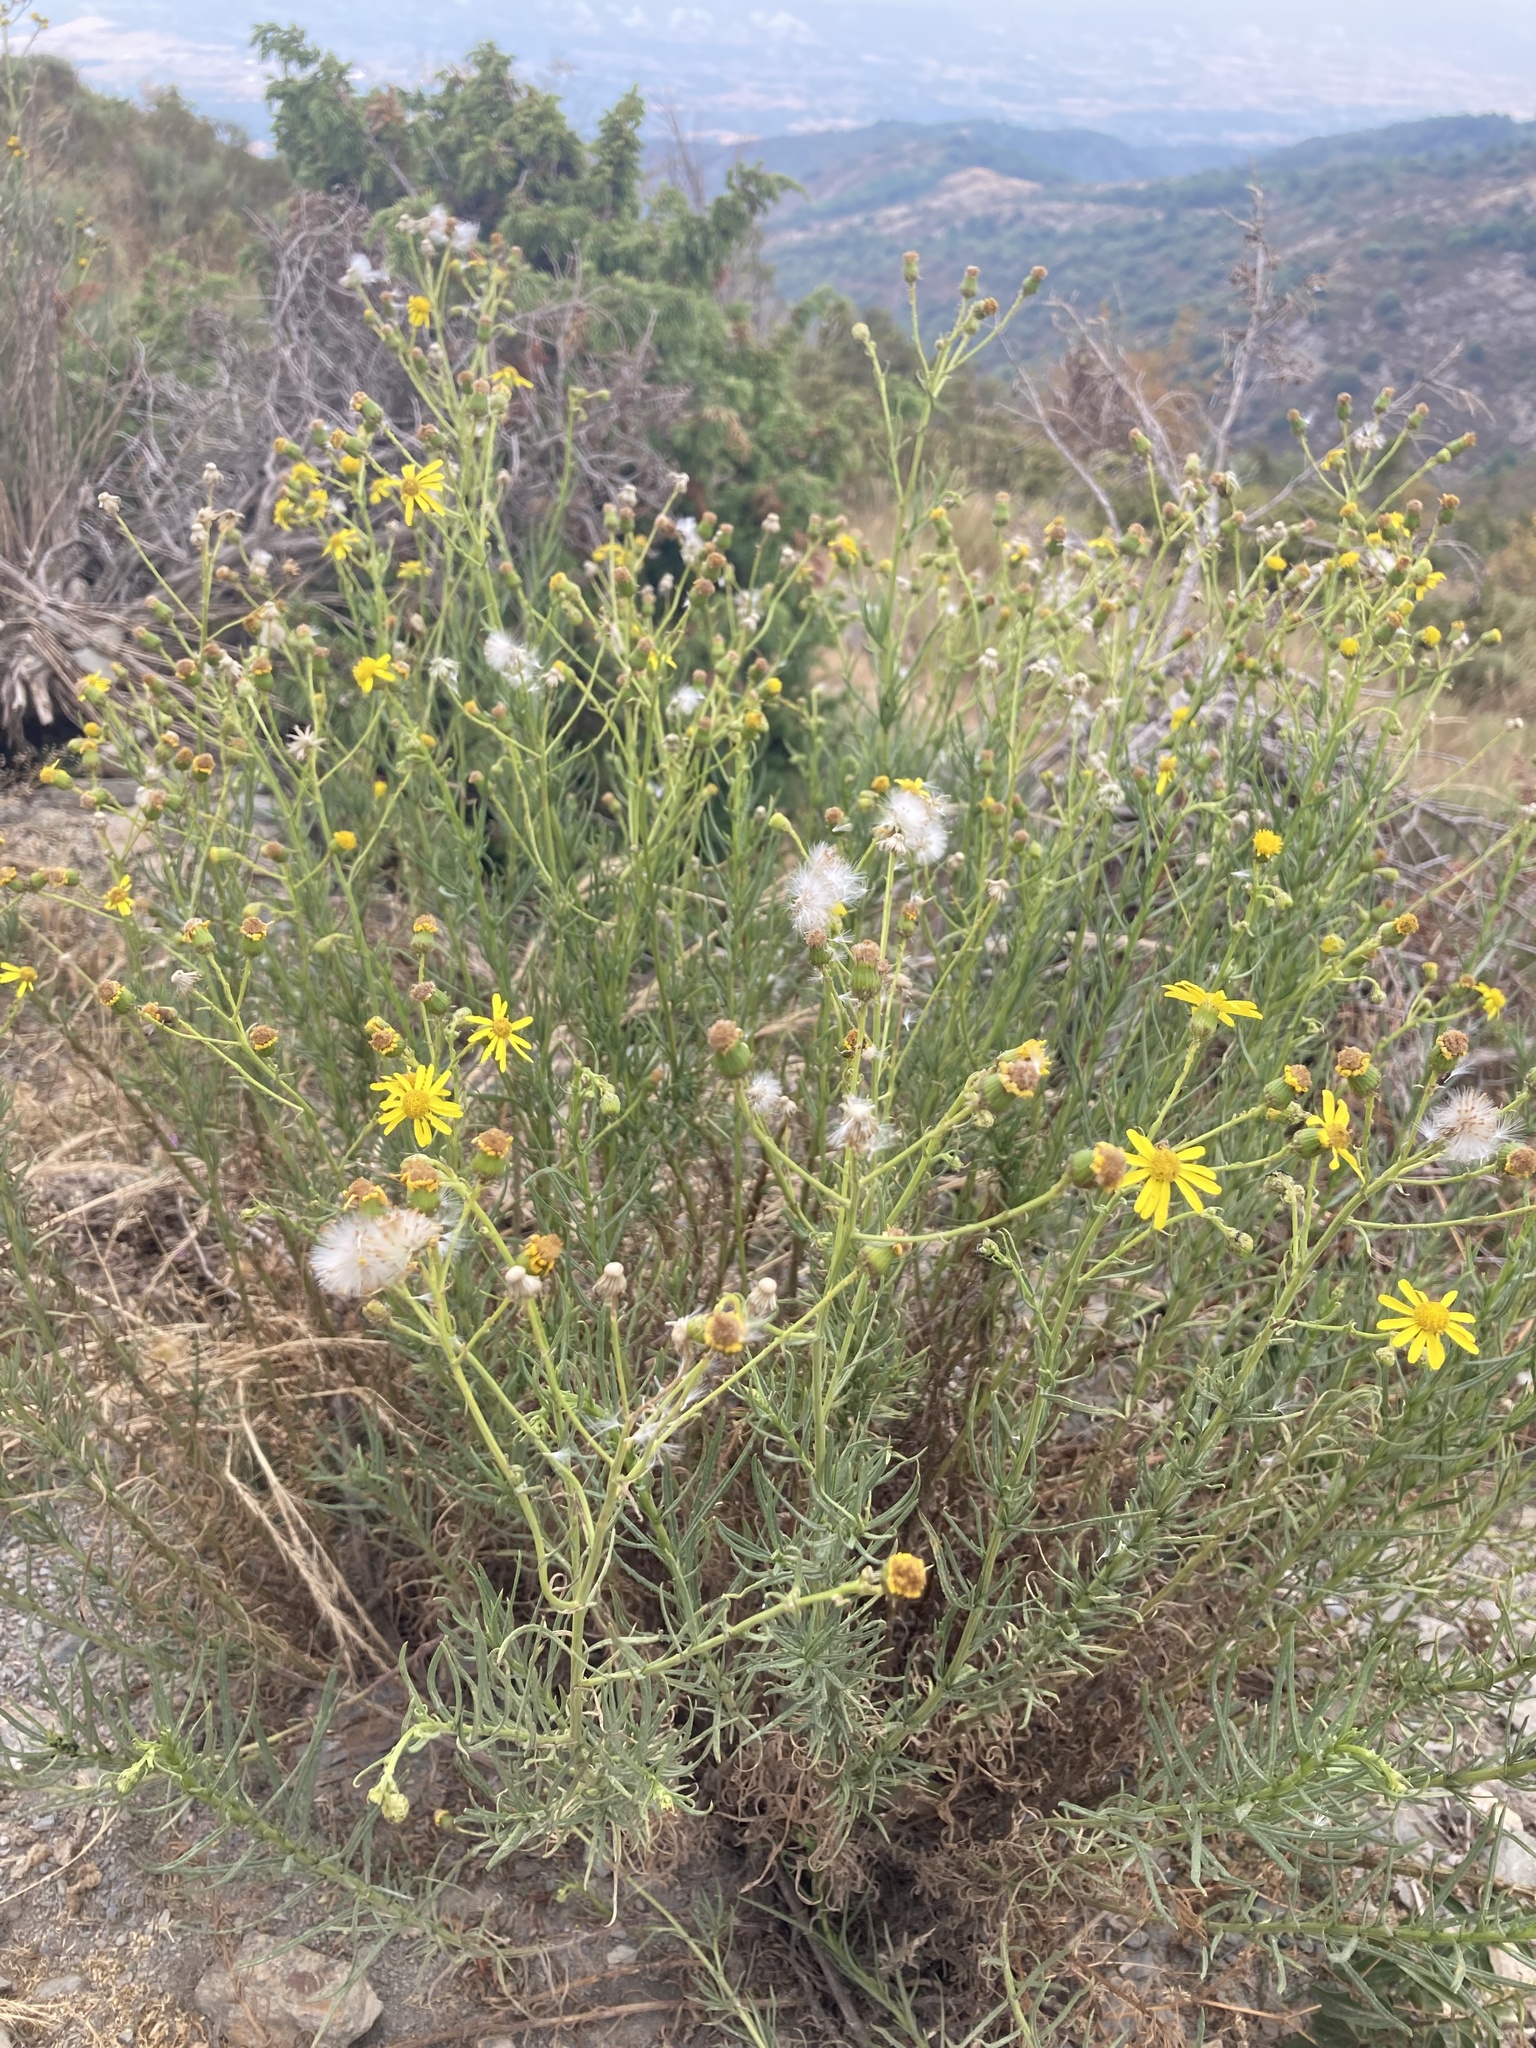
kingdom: Plantae
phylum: Tracheophyta
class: Magnoliopsida
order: Asterales
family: Asteraceae
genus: Senecio
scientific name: Senecio inaequidens
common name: Narrow-leaved ragwort
